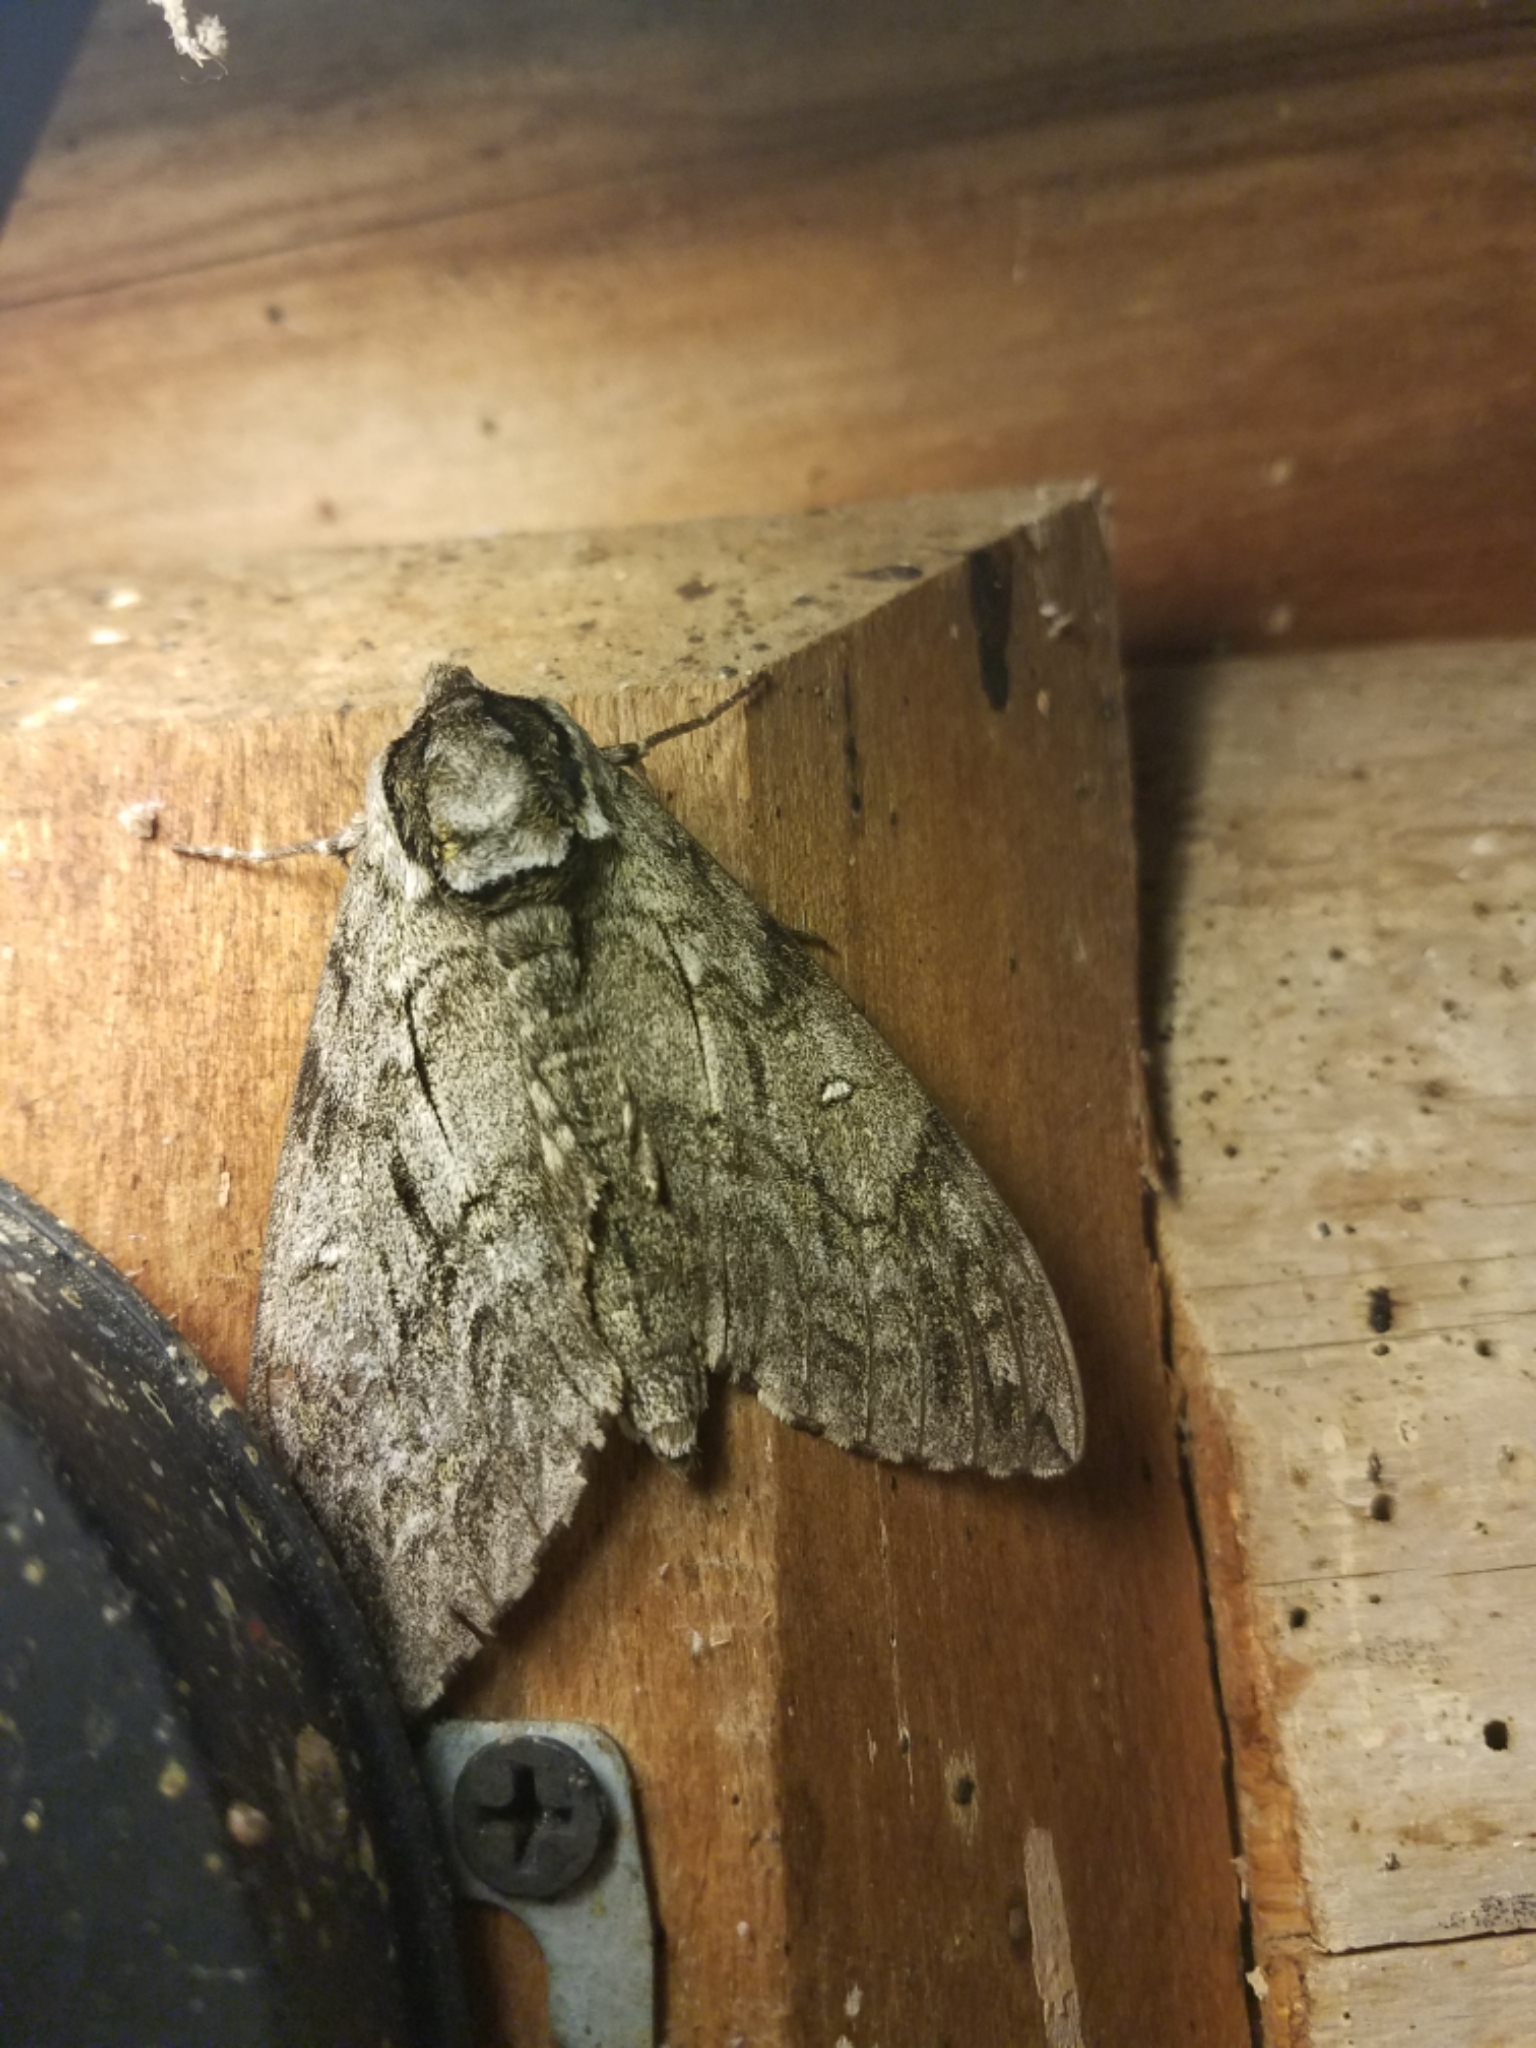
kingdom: Animalia
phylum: Arthropoda
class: Insecta
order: Lepidoptera
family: Sphingidae
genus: Ceratomia
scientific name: Ceratomia undulosa
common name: Waved sphinx
